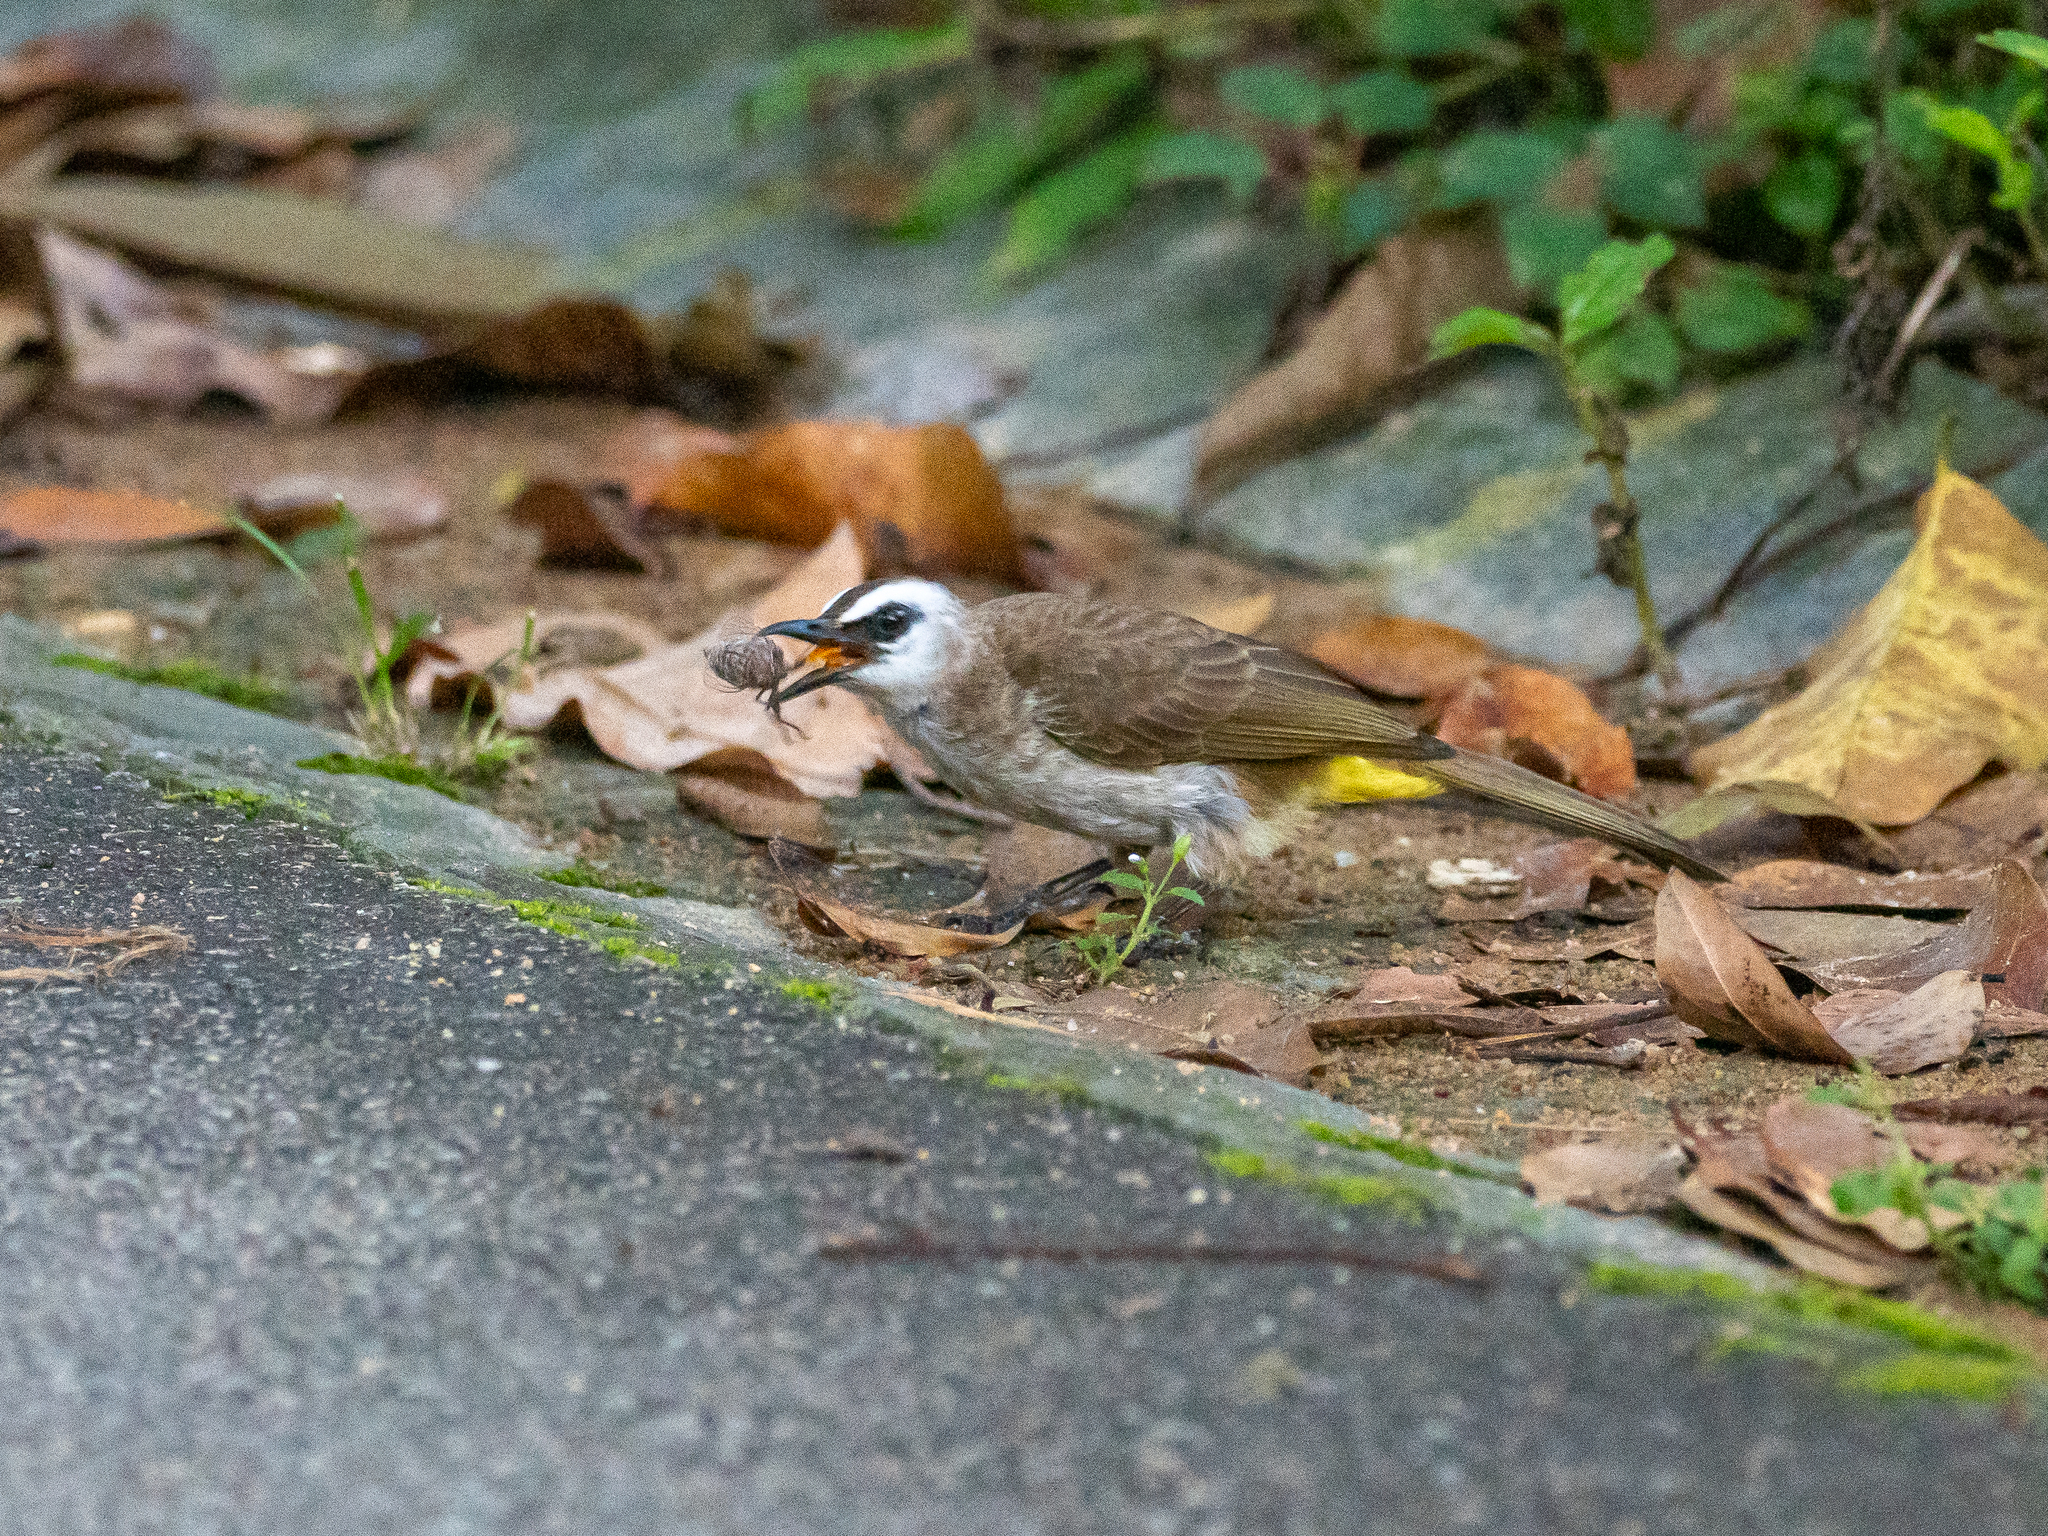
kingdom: Animalia
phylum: Chordata
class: Aves
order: Passeriformes
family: Pycnonotidae
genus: Pycnonotus
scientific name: Pycnonotus goiavier
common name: Yellow-vented bulbul
